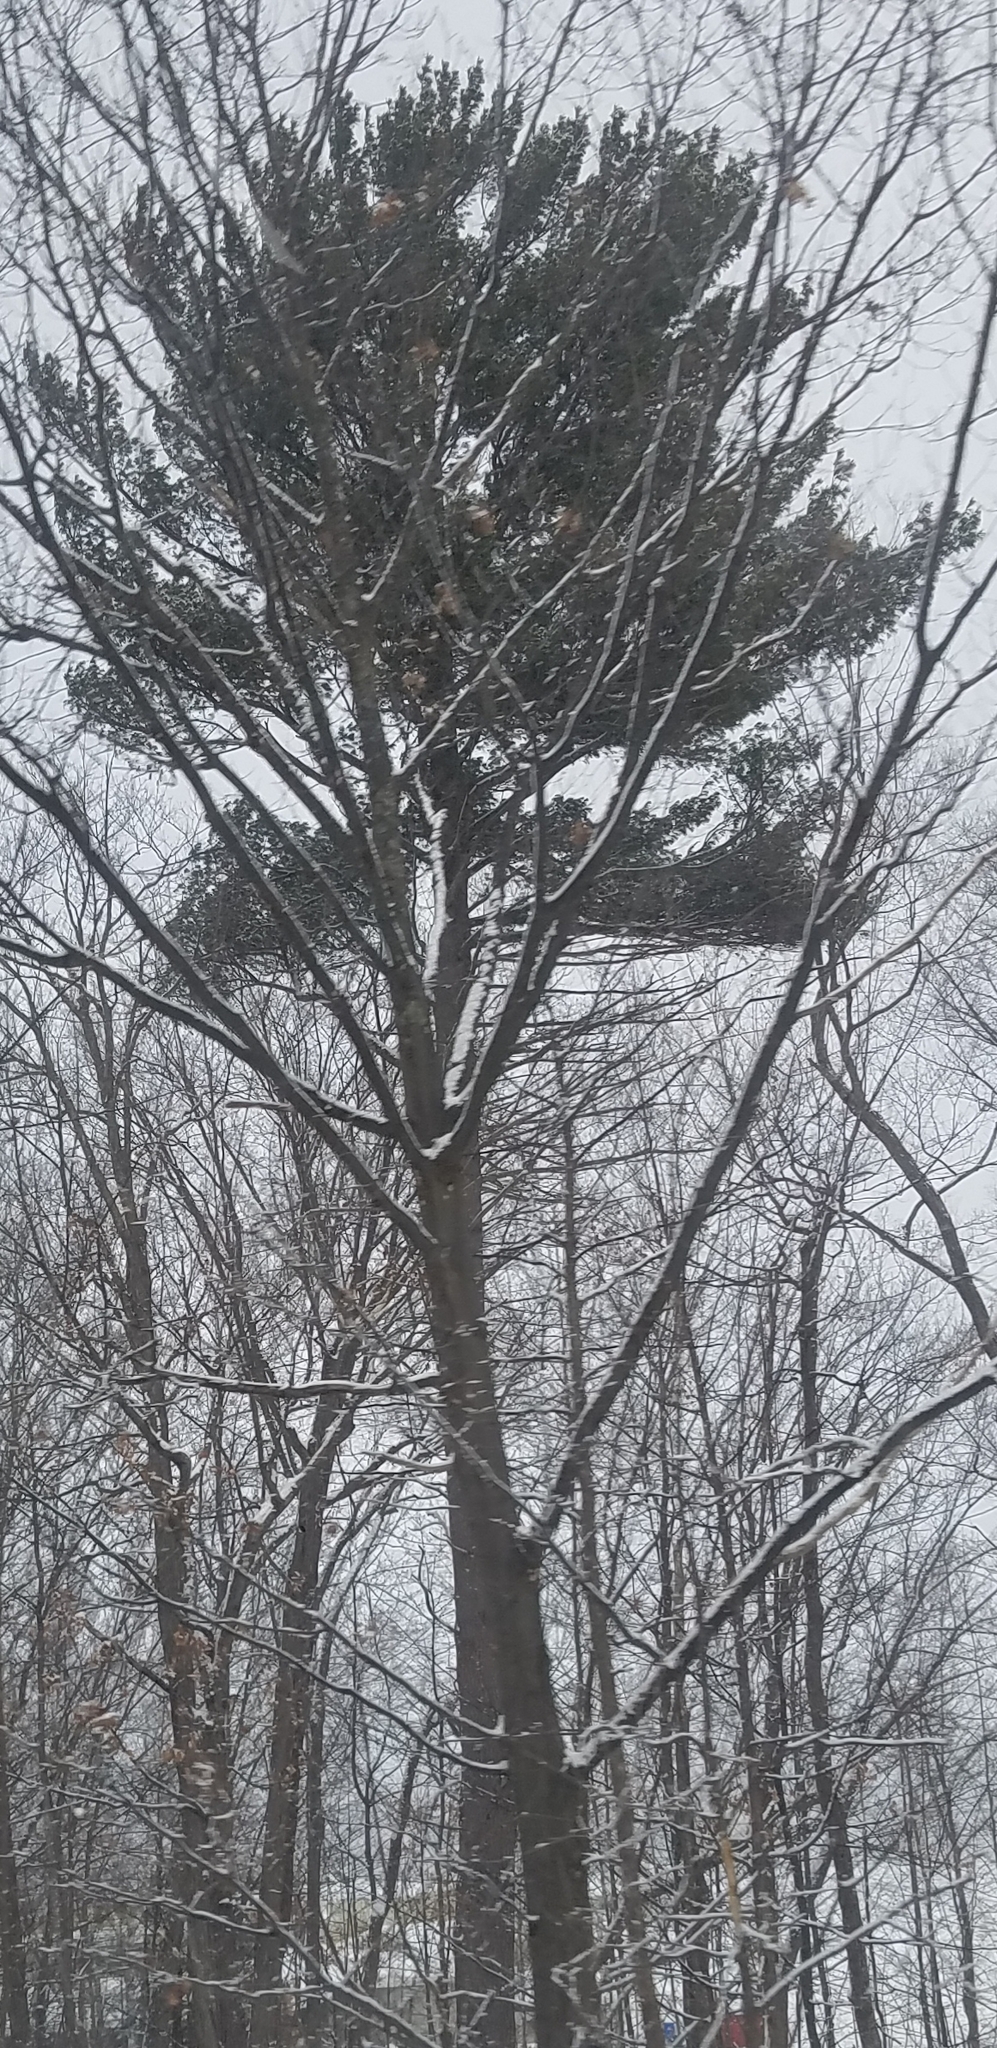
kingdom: Plantae
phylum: Tracheophyta
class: Pinopsida
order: Pinales
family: Pinaceae
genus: Pinus
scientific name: Pinus strobus
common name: Weymouth pine
